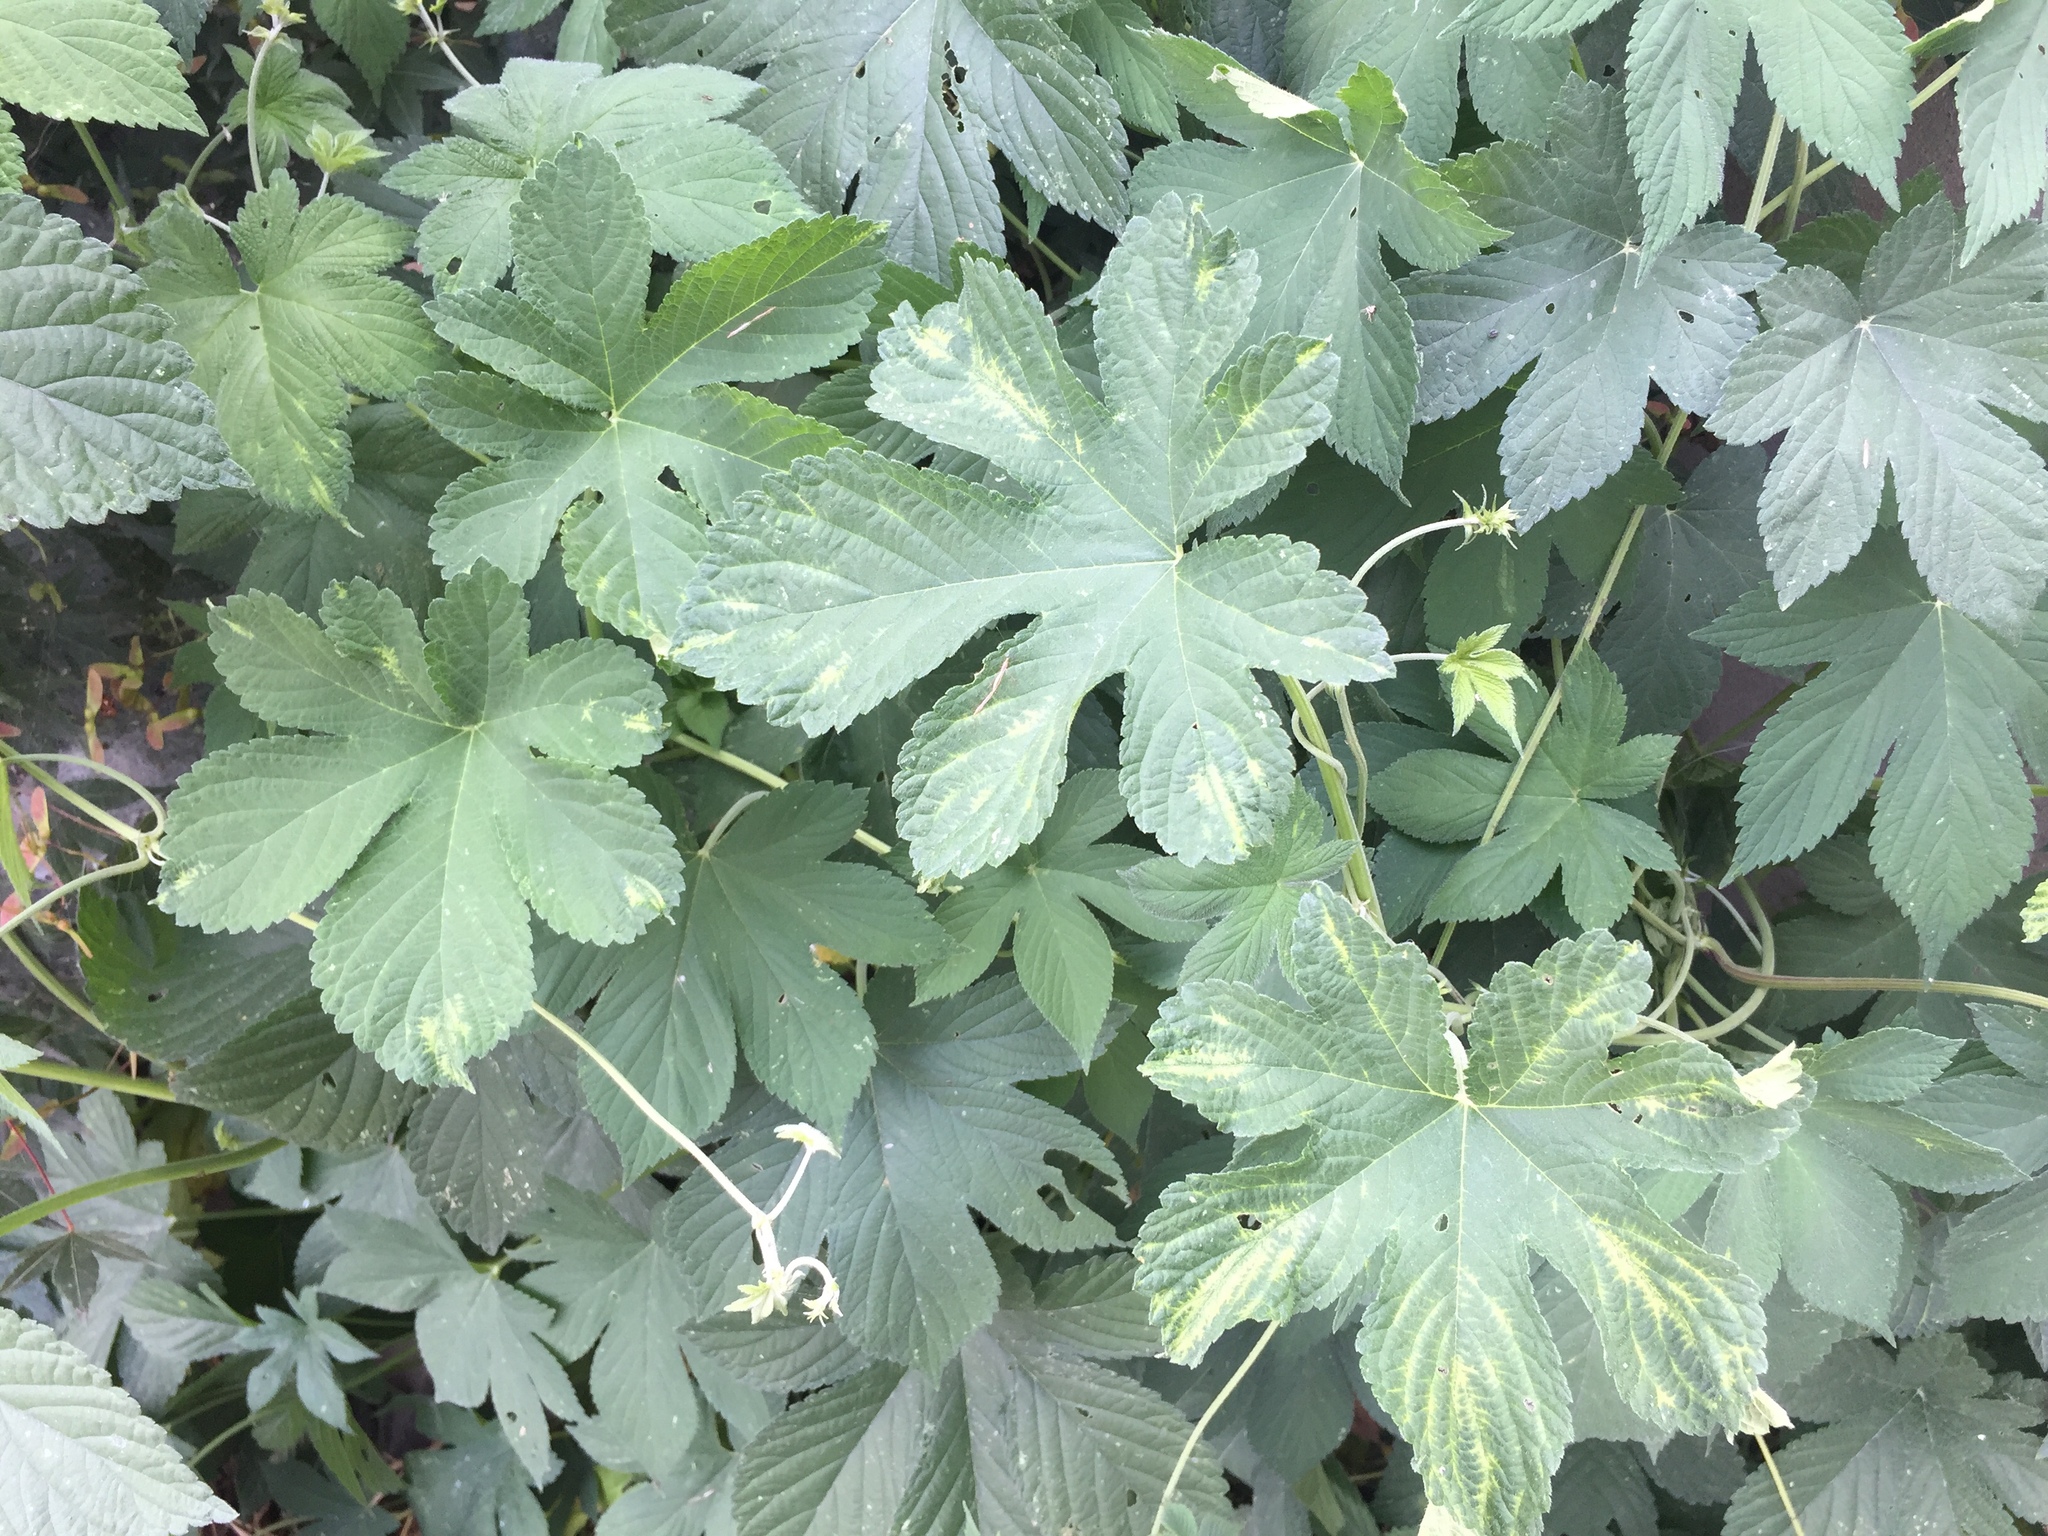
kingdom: Plantae
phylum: Tracheophyta
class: Magnoliopsida
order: Rosales
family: Cannabaceae
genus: Humulus
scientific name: Humulus scandens
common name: Japanese hop
